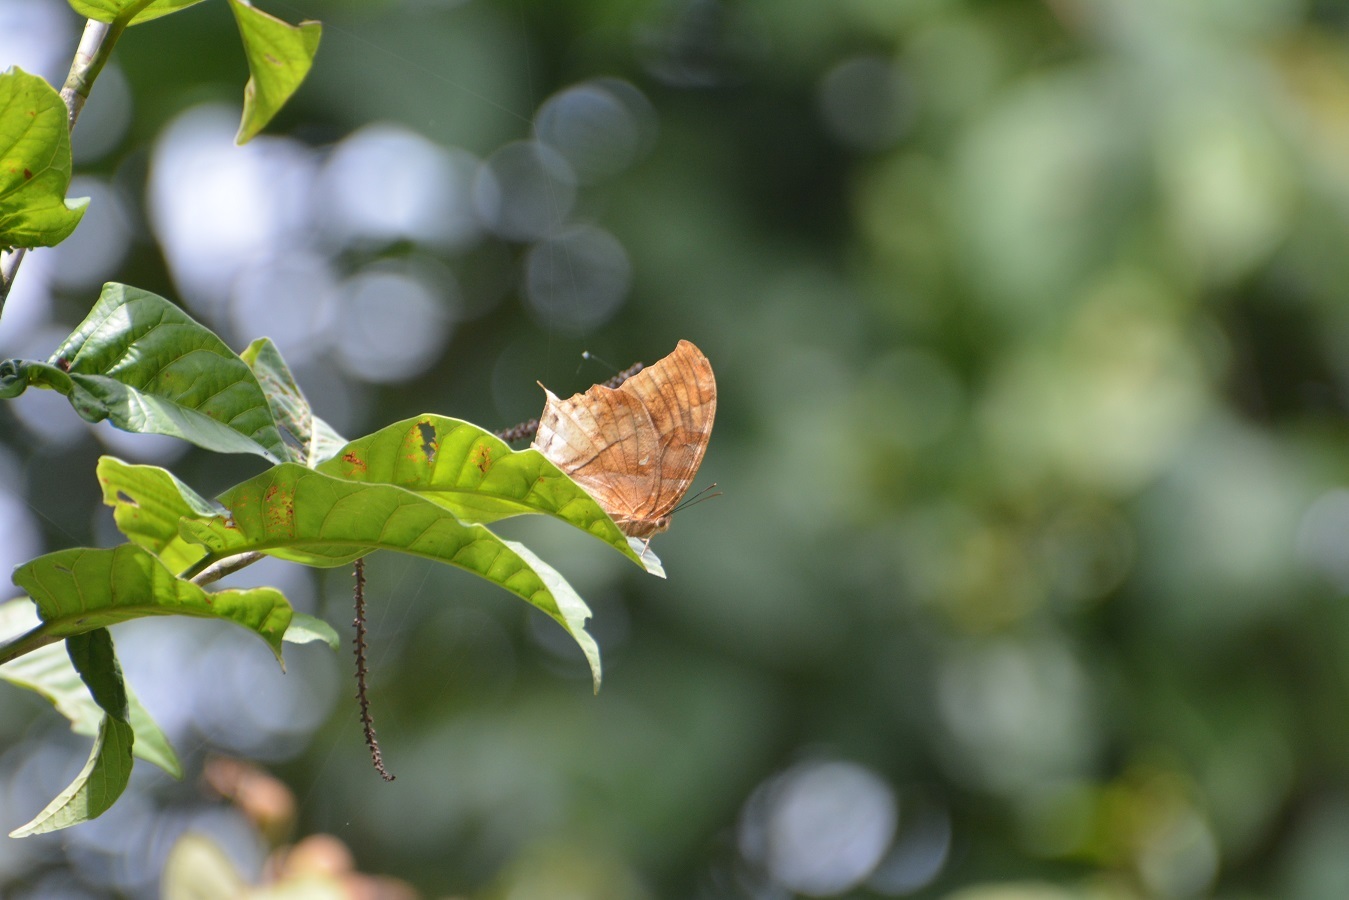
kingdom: Animalia
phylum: Arthropoda
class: Insecta
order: Lepidoptera
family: Nymphalidae
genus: Consul
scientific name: Consul excellens
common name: Black-veined leafwing
